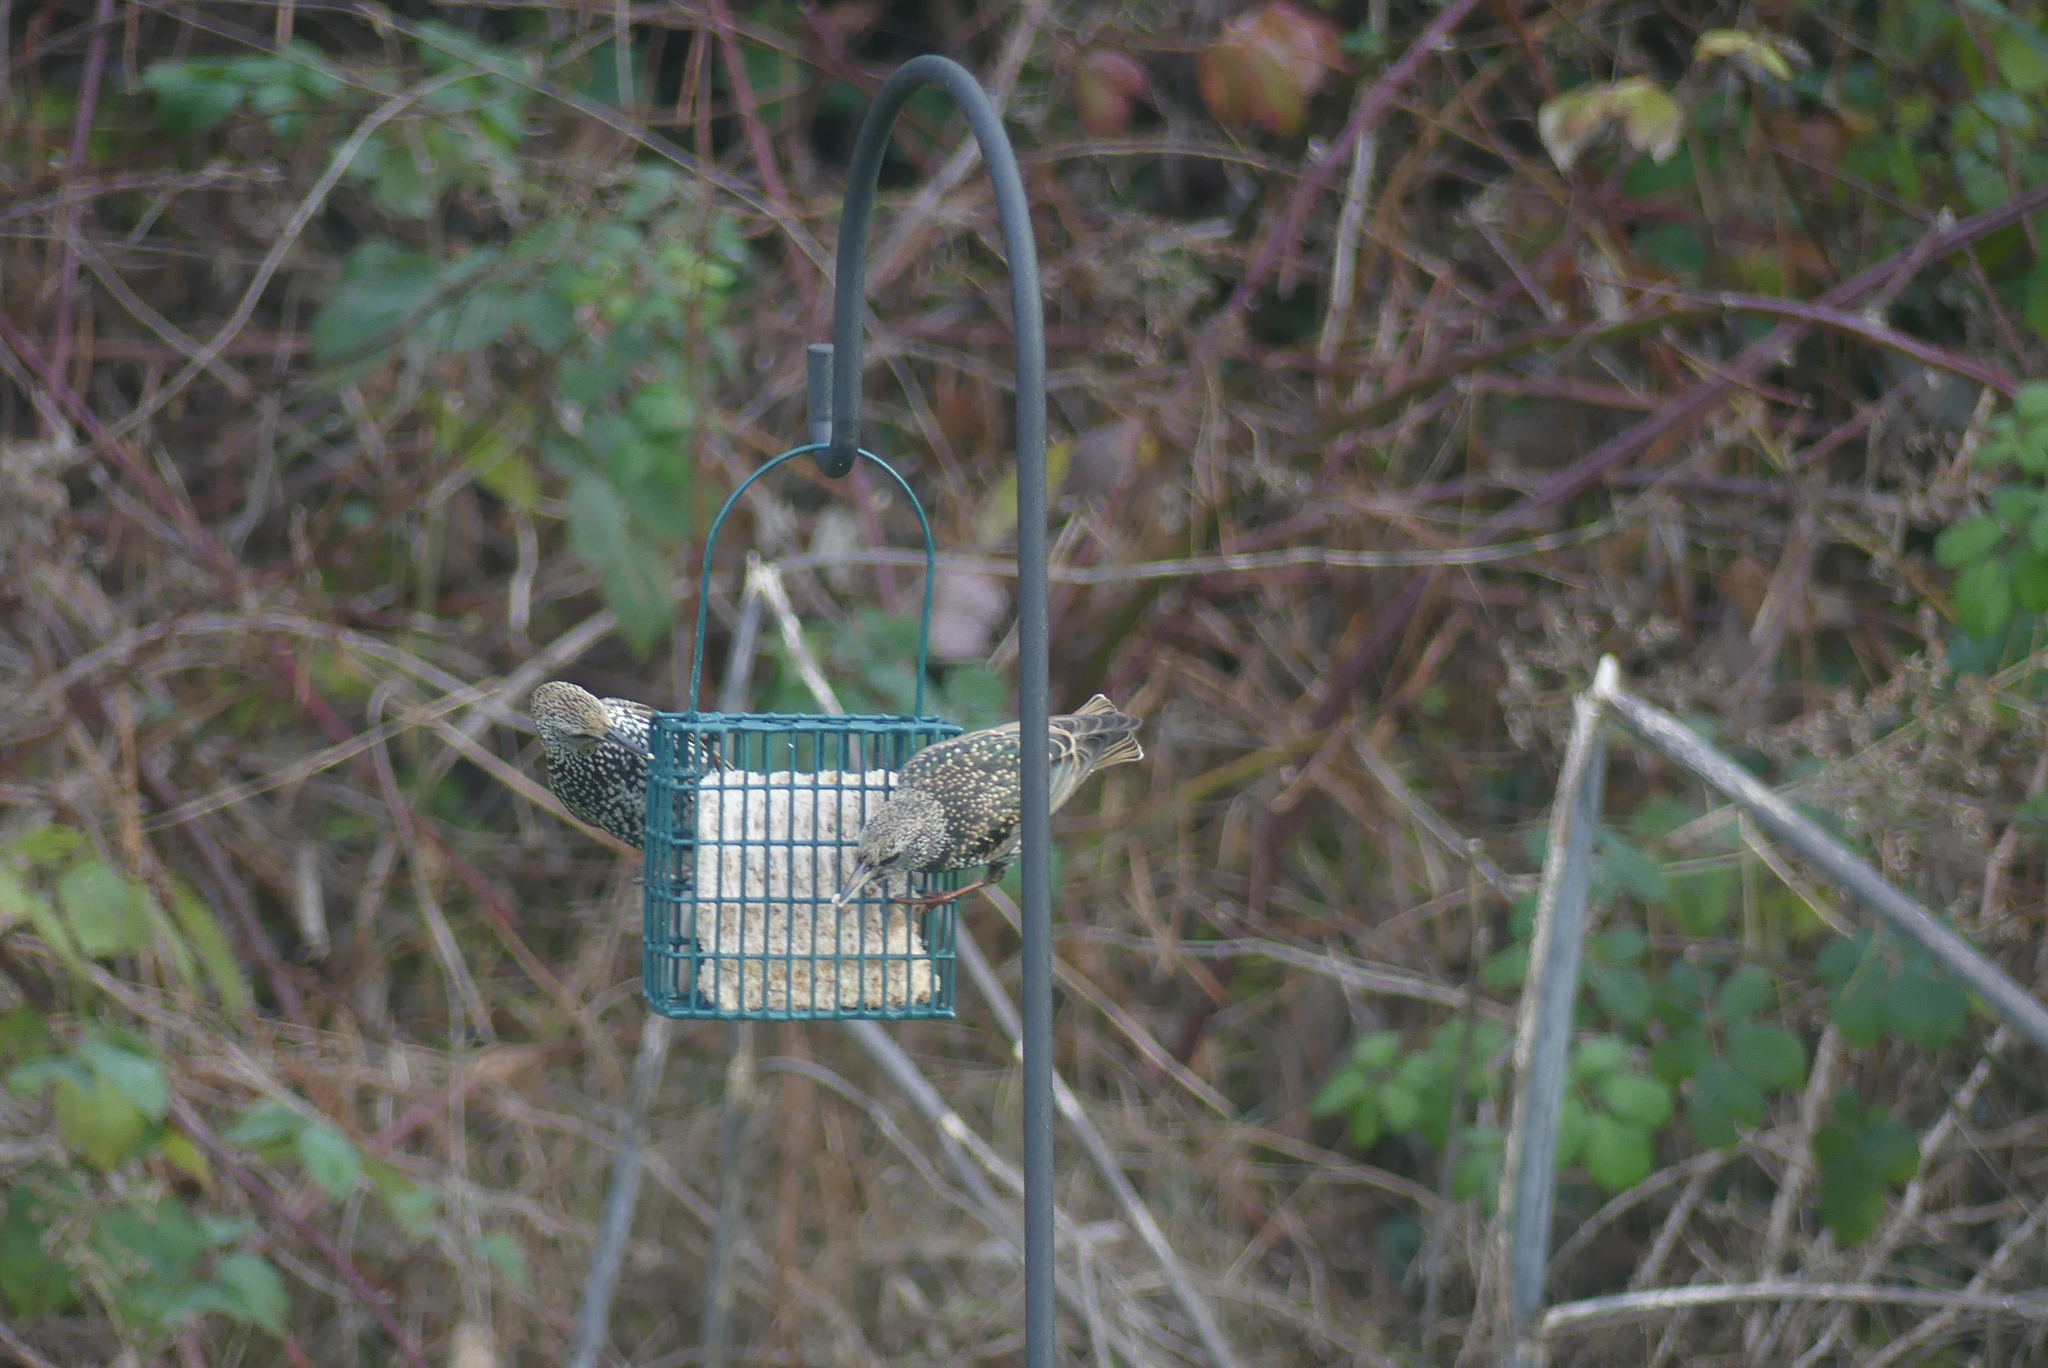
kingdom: Animalia
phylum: Chordata
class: Aves
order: Passeriformes
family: Sturnidae
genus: Sturnus
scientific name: Sturnus vulgaris
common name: Common starling
